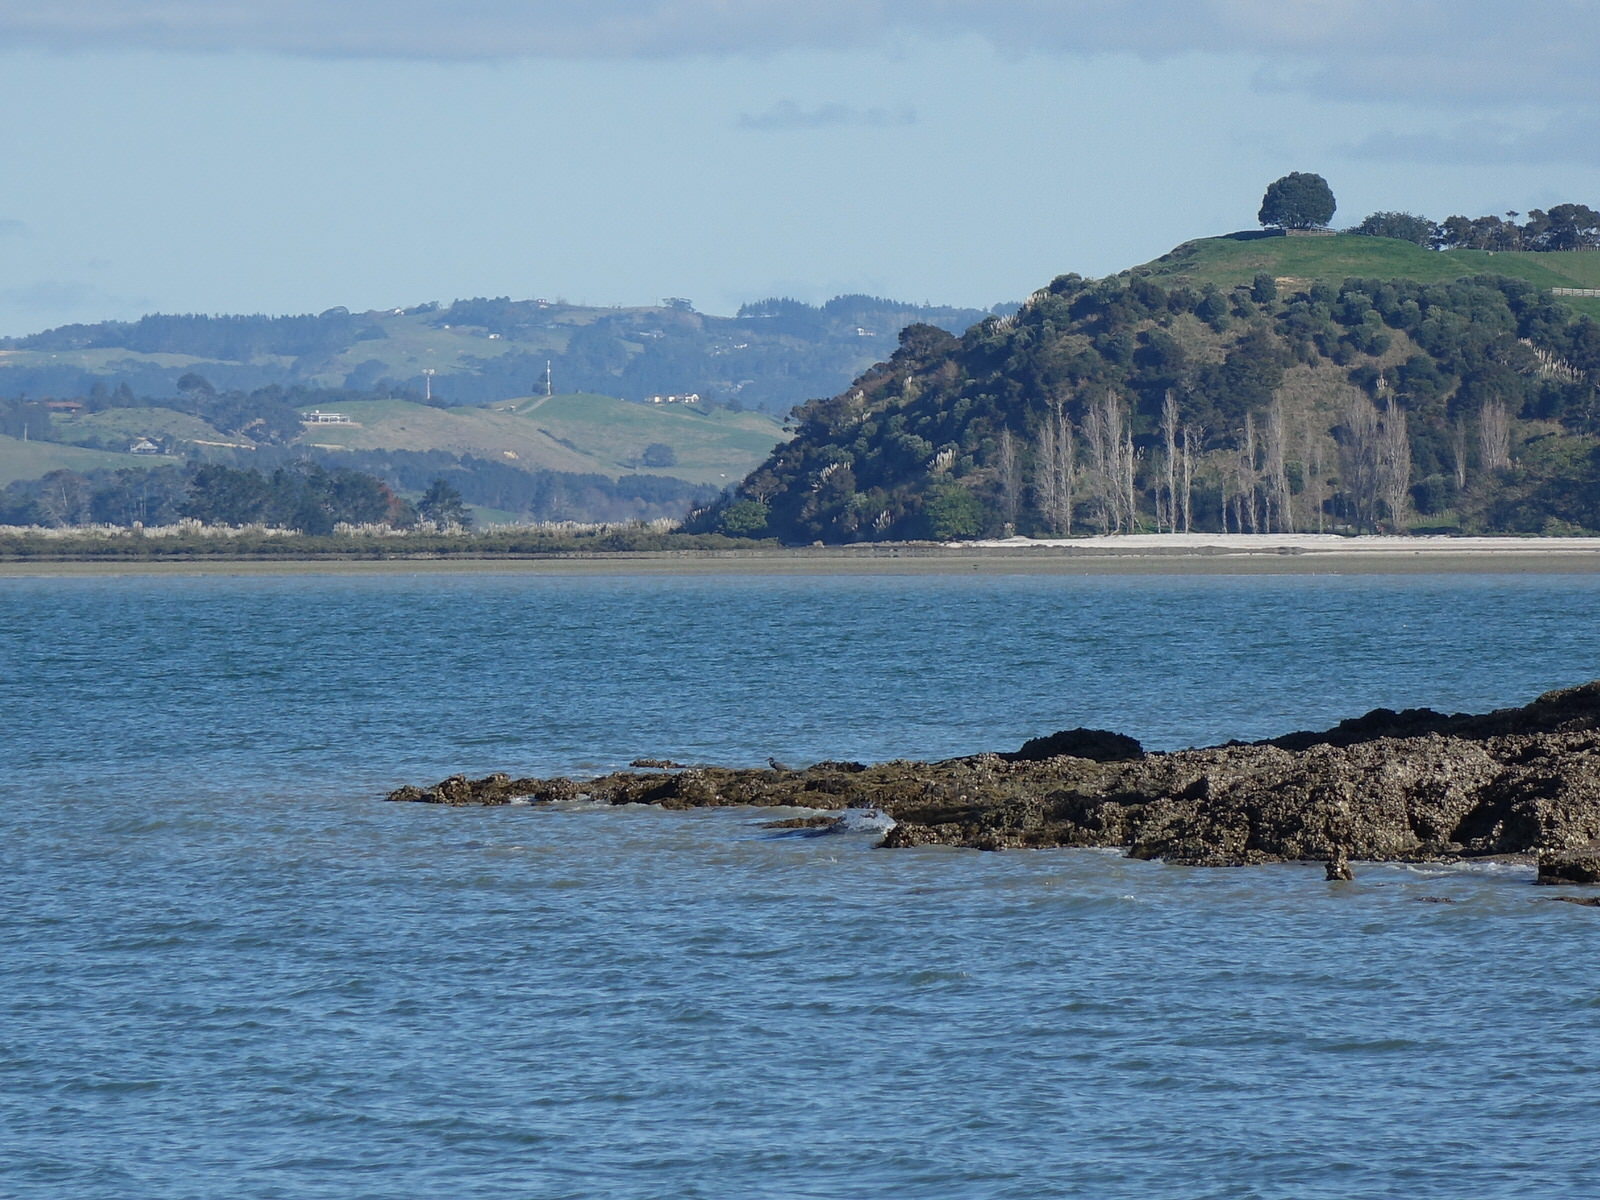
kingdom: Animalia
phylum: Chordata
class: Aves
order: Pelecaniformes
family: Ardeidae
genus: Egretta
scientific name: Egretta sacra
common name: Pacific reef heron
